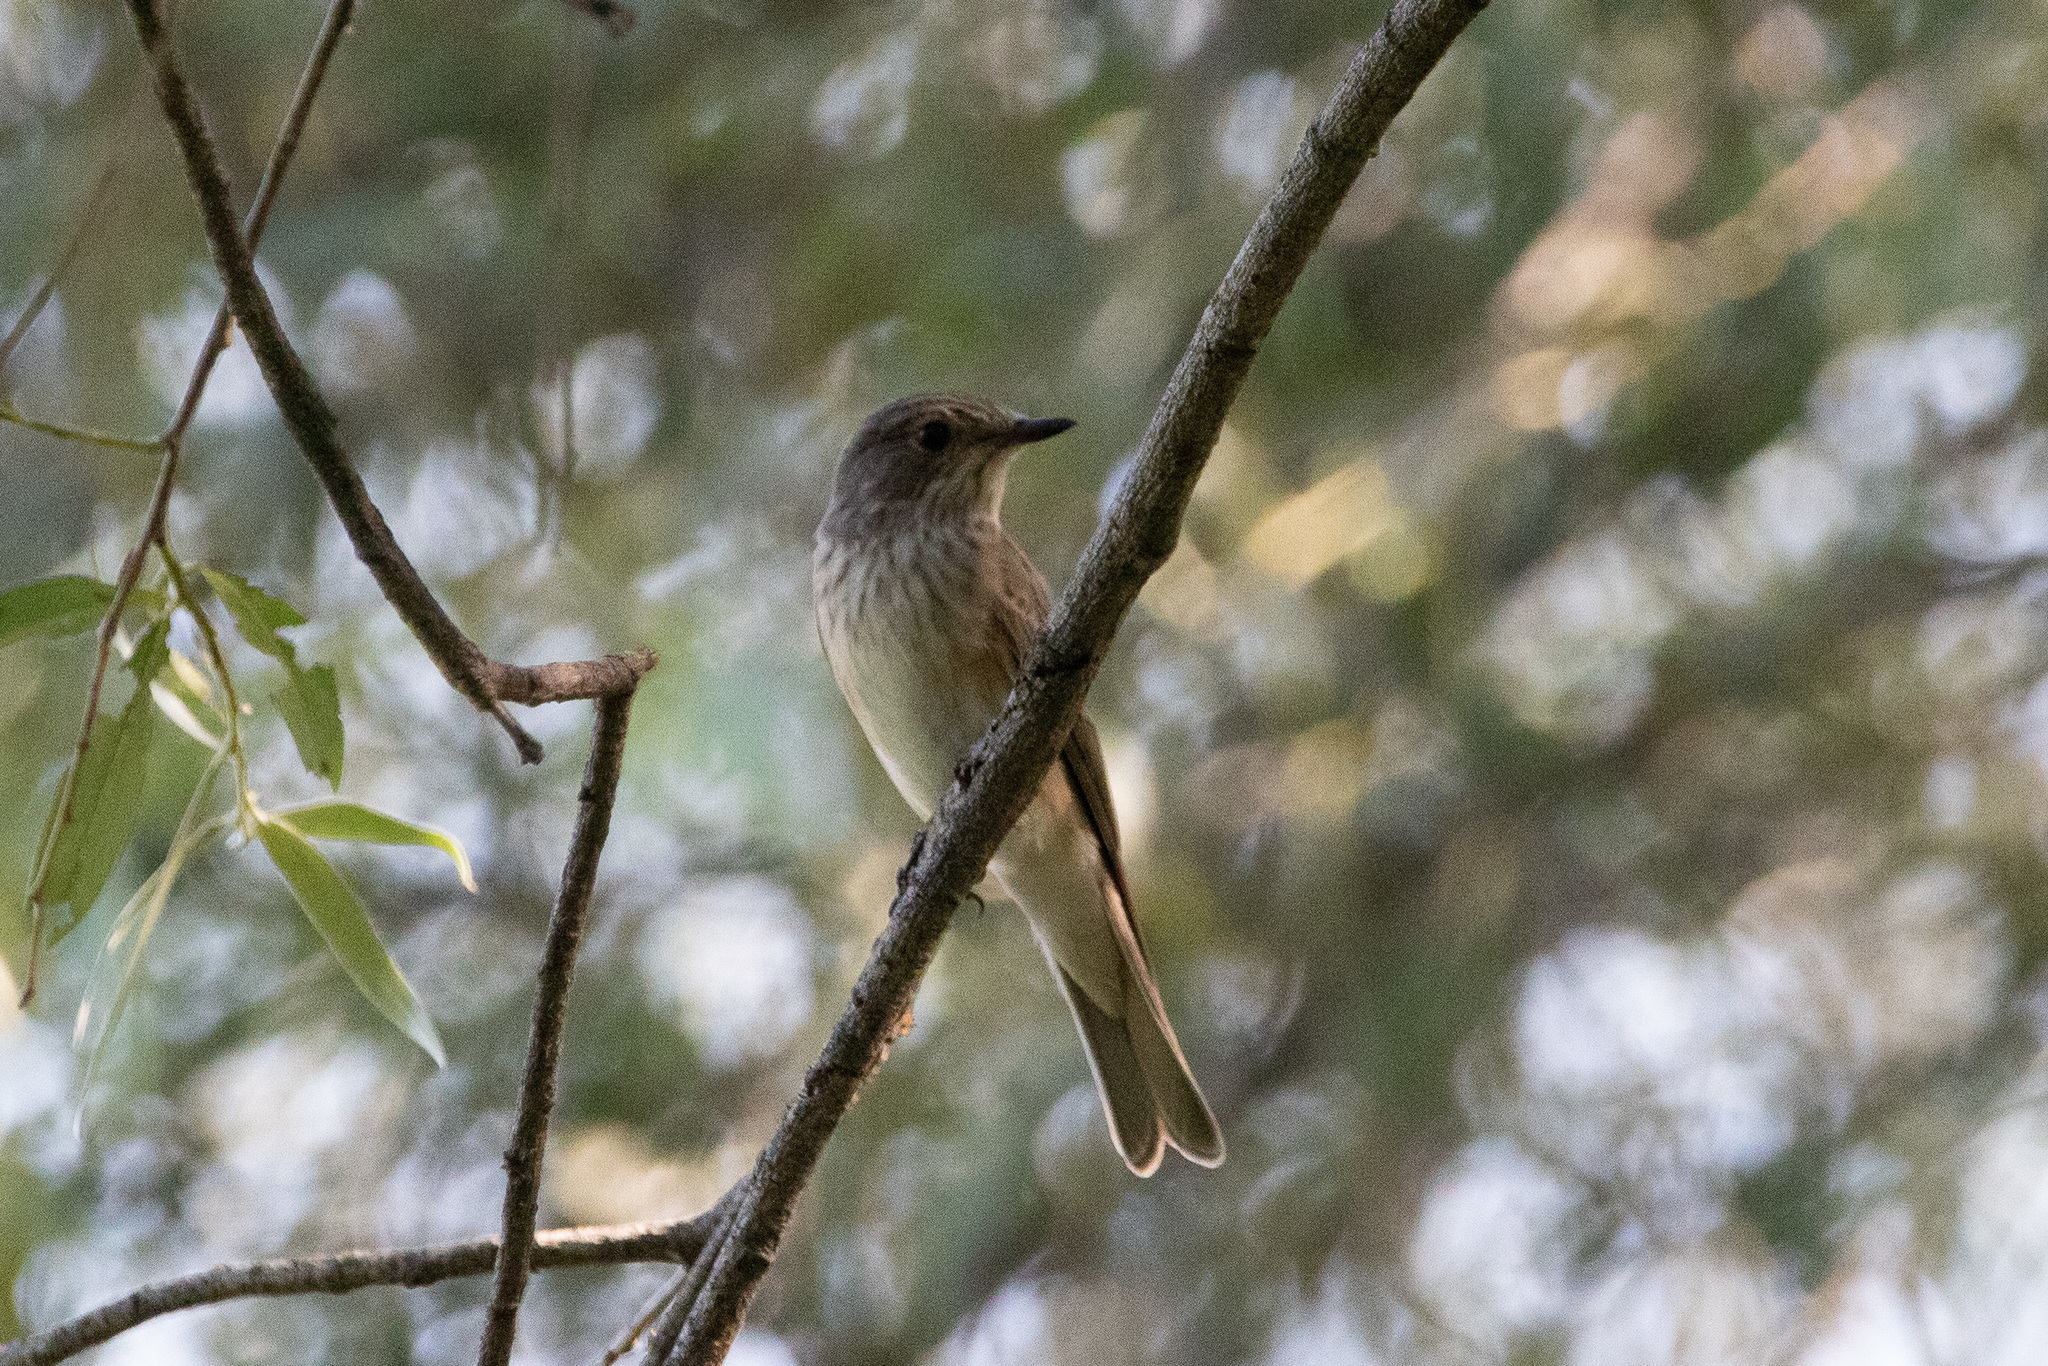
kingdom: Animalia
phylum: Chordata
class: Aves
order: Passeriformes
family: Muscicapidae
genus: Muscicapa
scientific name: Muscicapa striata
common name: Spotted flycatcher
